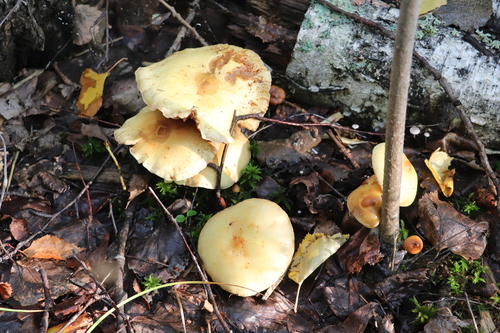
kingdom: Fungi
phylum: Basidiomycota
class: Agaricomycetes
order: Agaricales
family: Hymenogastraceae
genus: Flammula
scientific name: Flammula alnicola
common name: Alder scalycap
